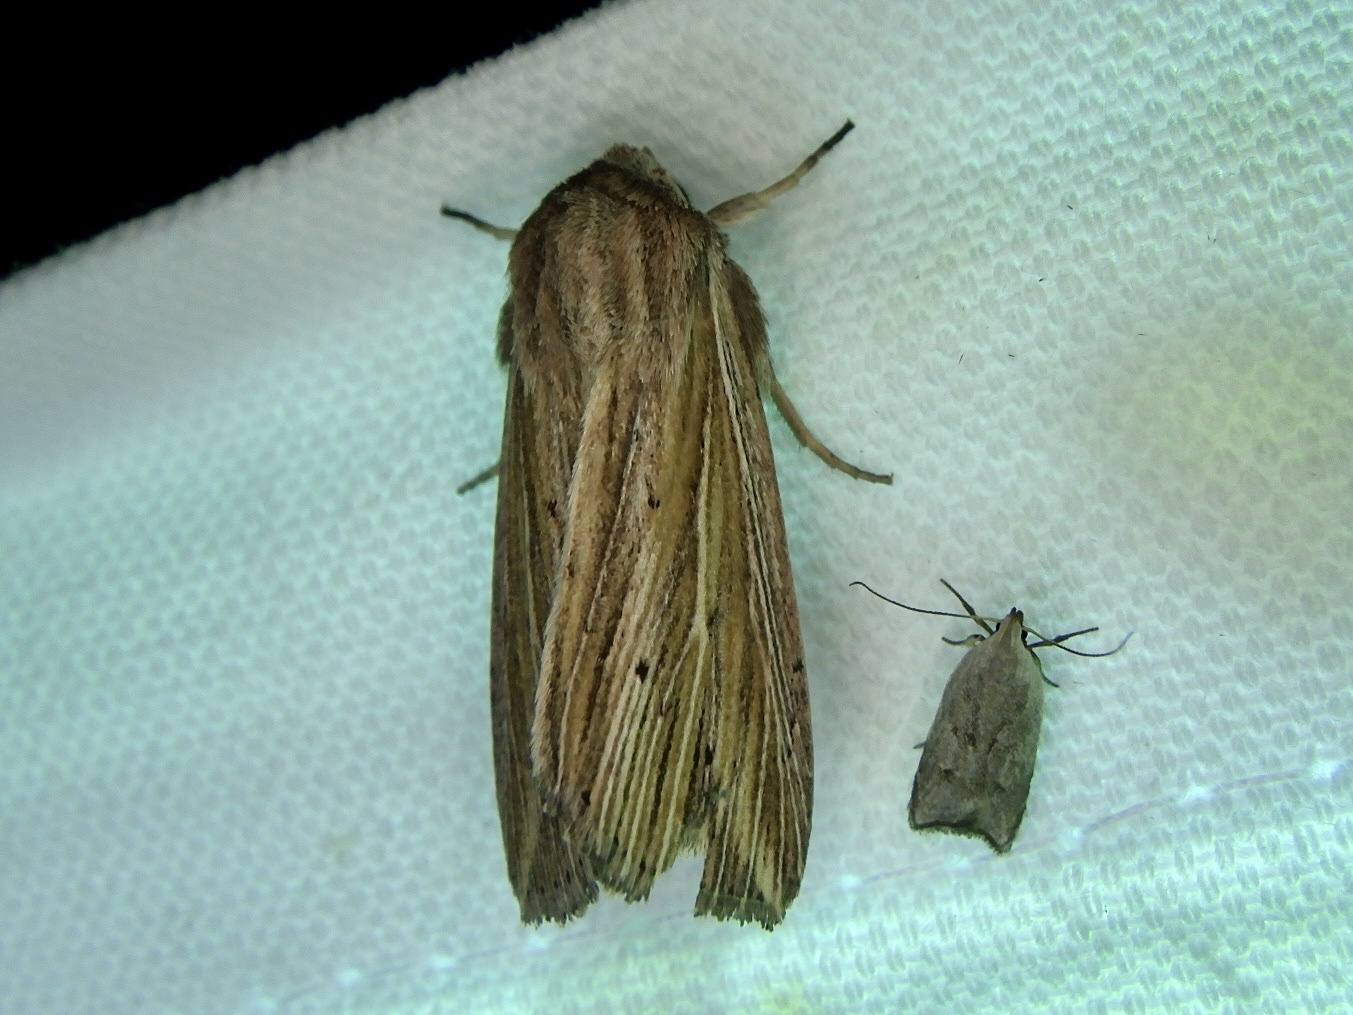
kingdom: Animalia
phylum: Arthropoda
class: Insecta
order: Lepidoptera
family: Noctuidae
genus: Analetia
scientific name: Analetia
